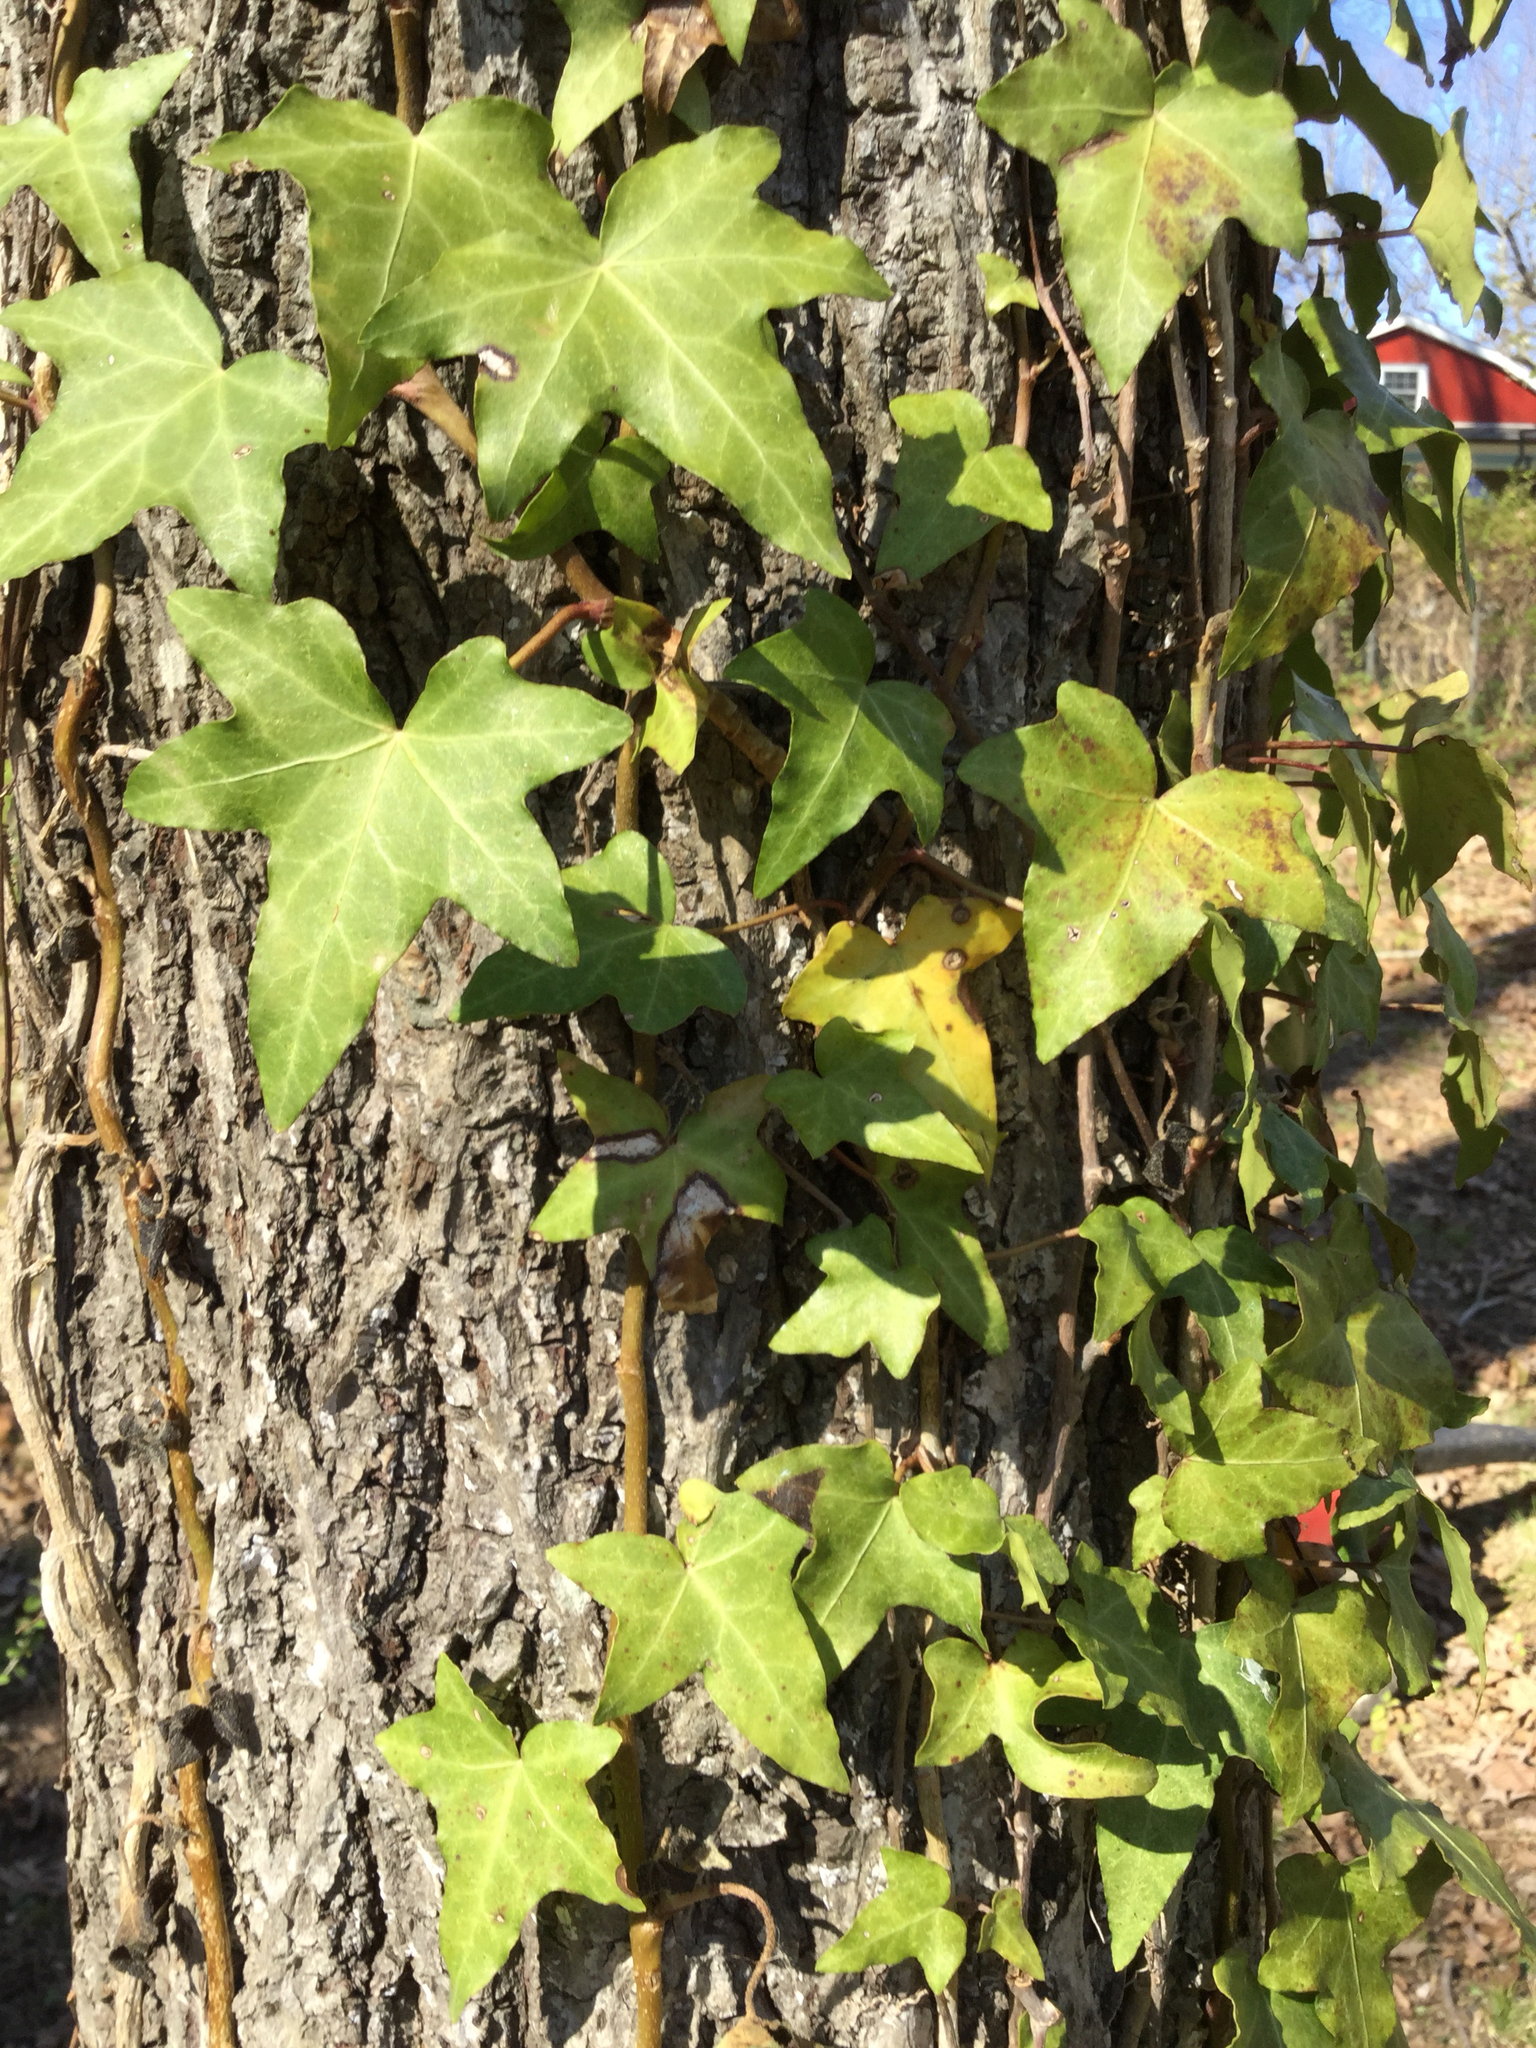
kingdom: Plantae
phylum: Tracheophyta
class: Magnoliopsida
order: Apiales
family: Araliaceae
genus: Hedera
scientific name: Hedera helix
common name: Ivy
